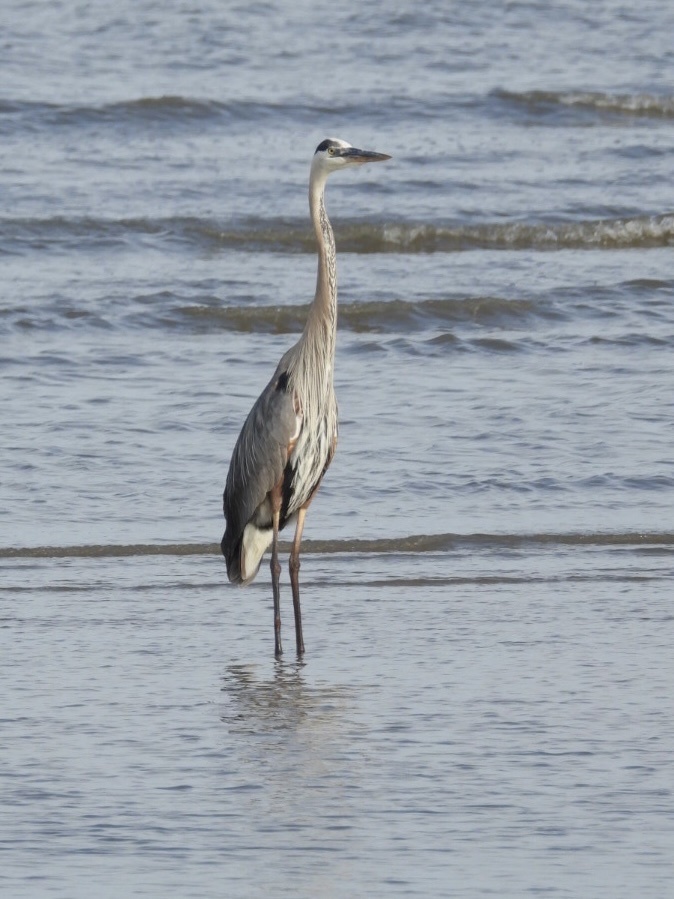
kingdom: Animalia
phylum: Chordata
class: Aves
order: Pelecaniformes
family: Ardeidae
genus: Ardea
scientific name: Ardea herodias
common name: Great blue heron
